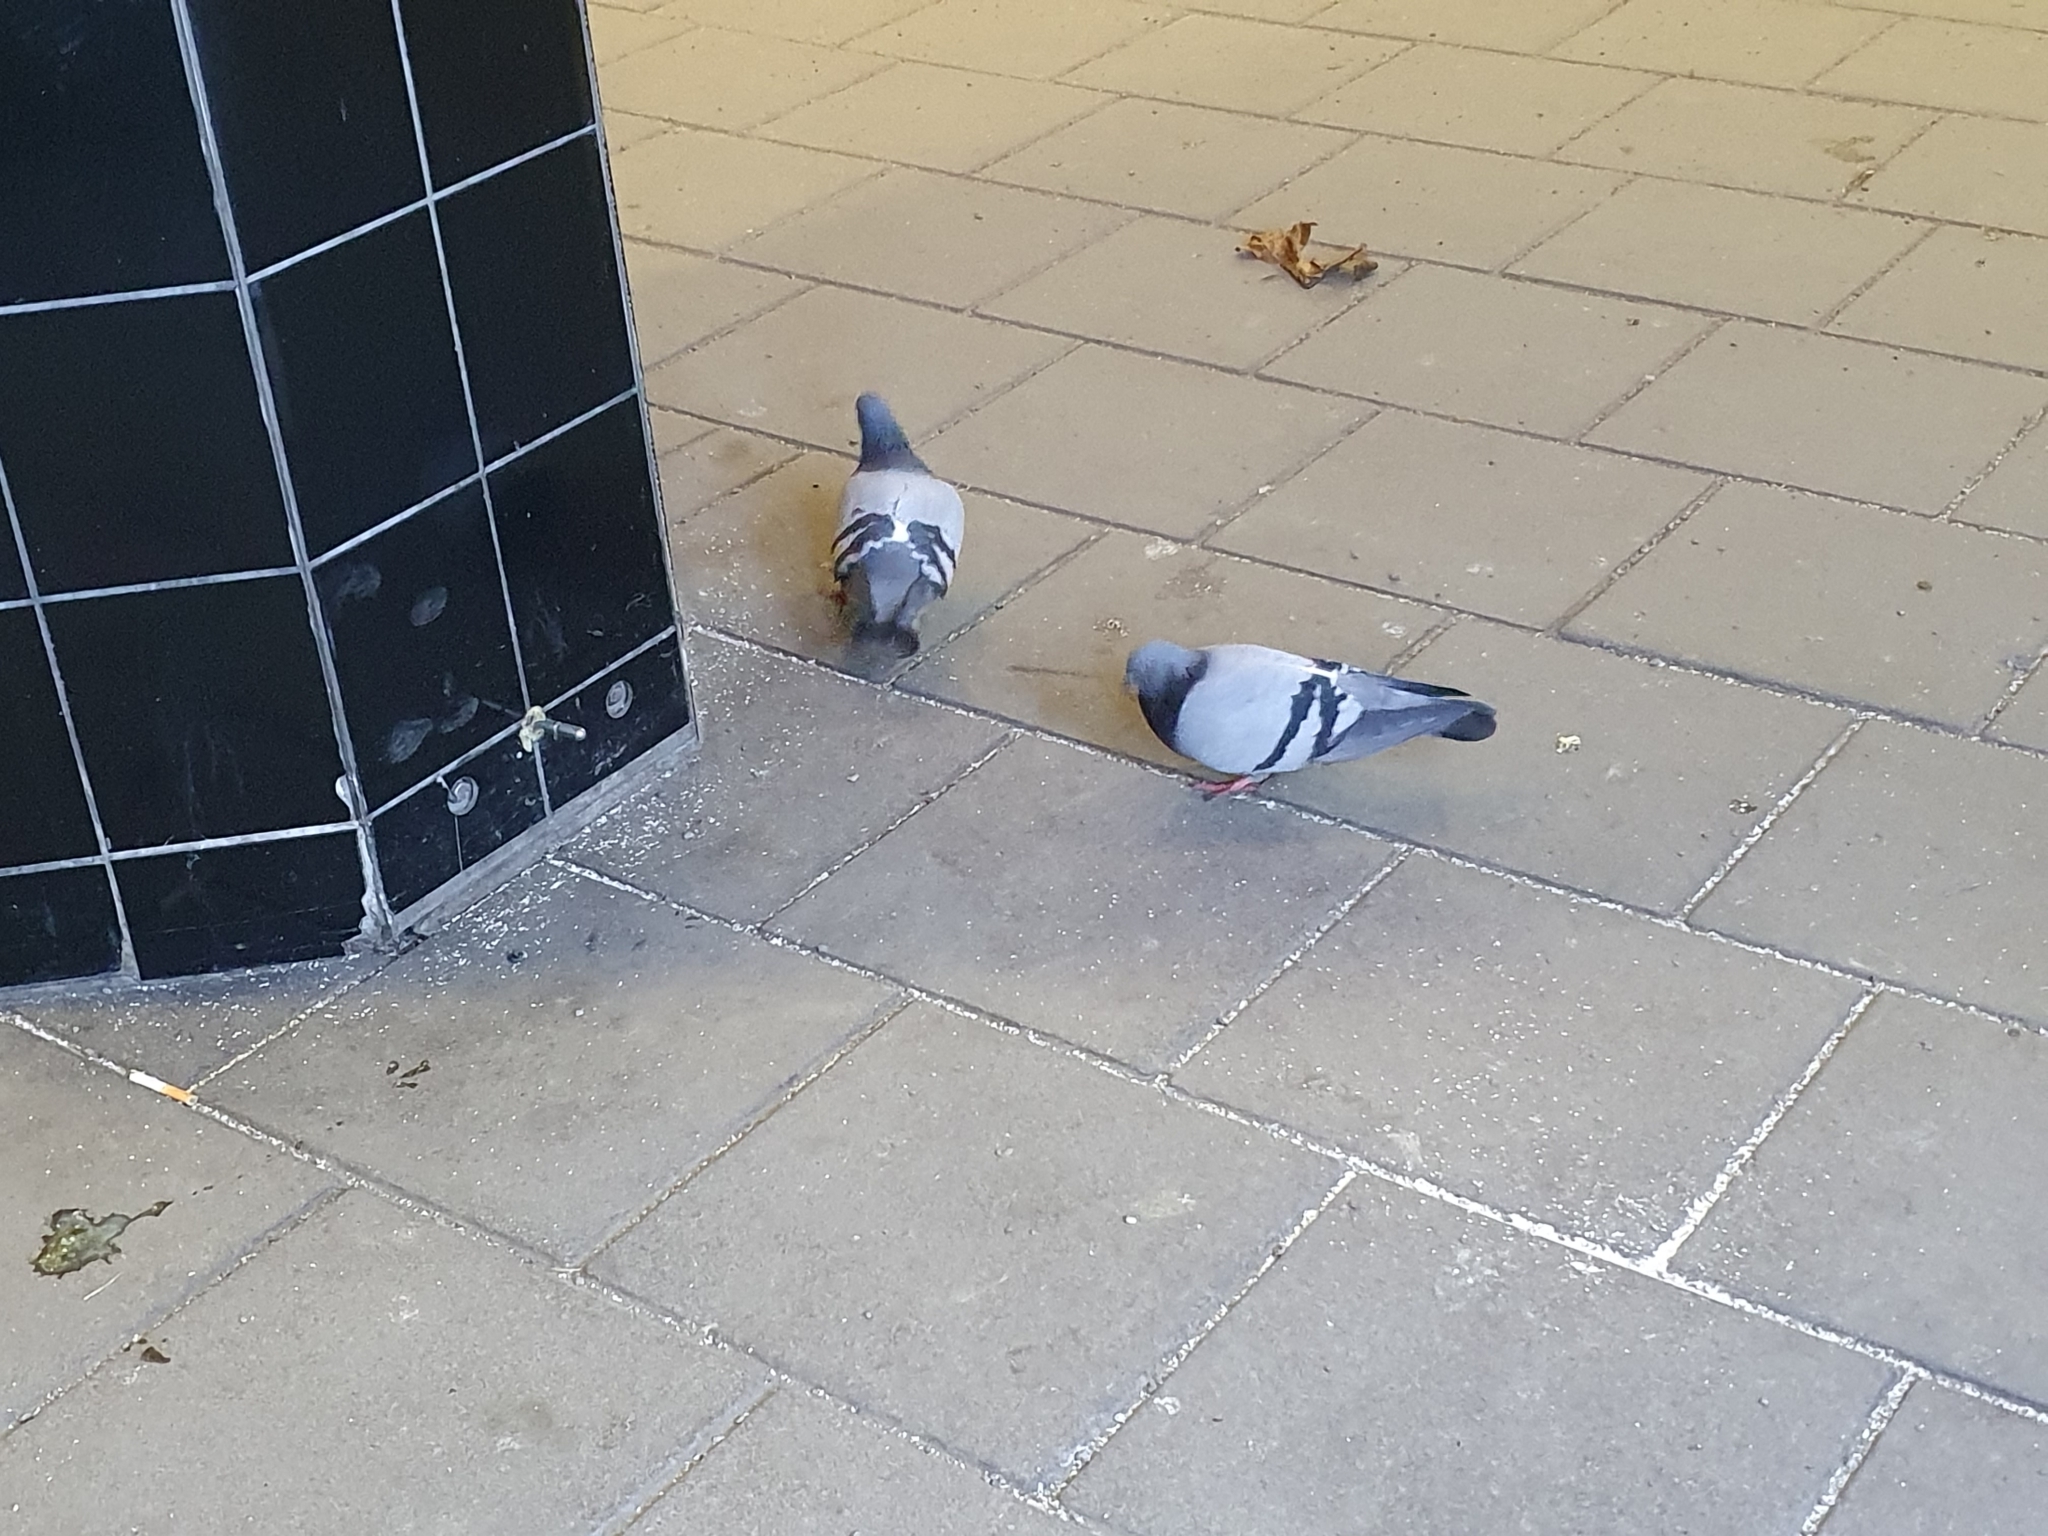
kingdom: Animalia
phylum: Chordata
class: Aves
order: Columbiformes
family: Columbidae
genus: Columba
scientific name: Columba livia
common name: Rock pigeon
